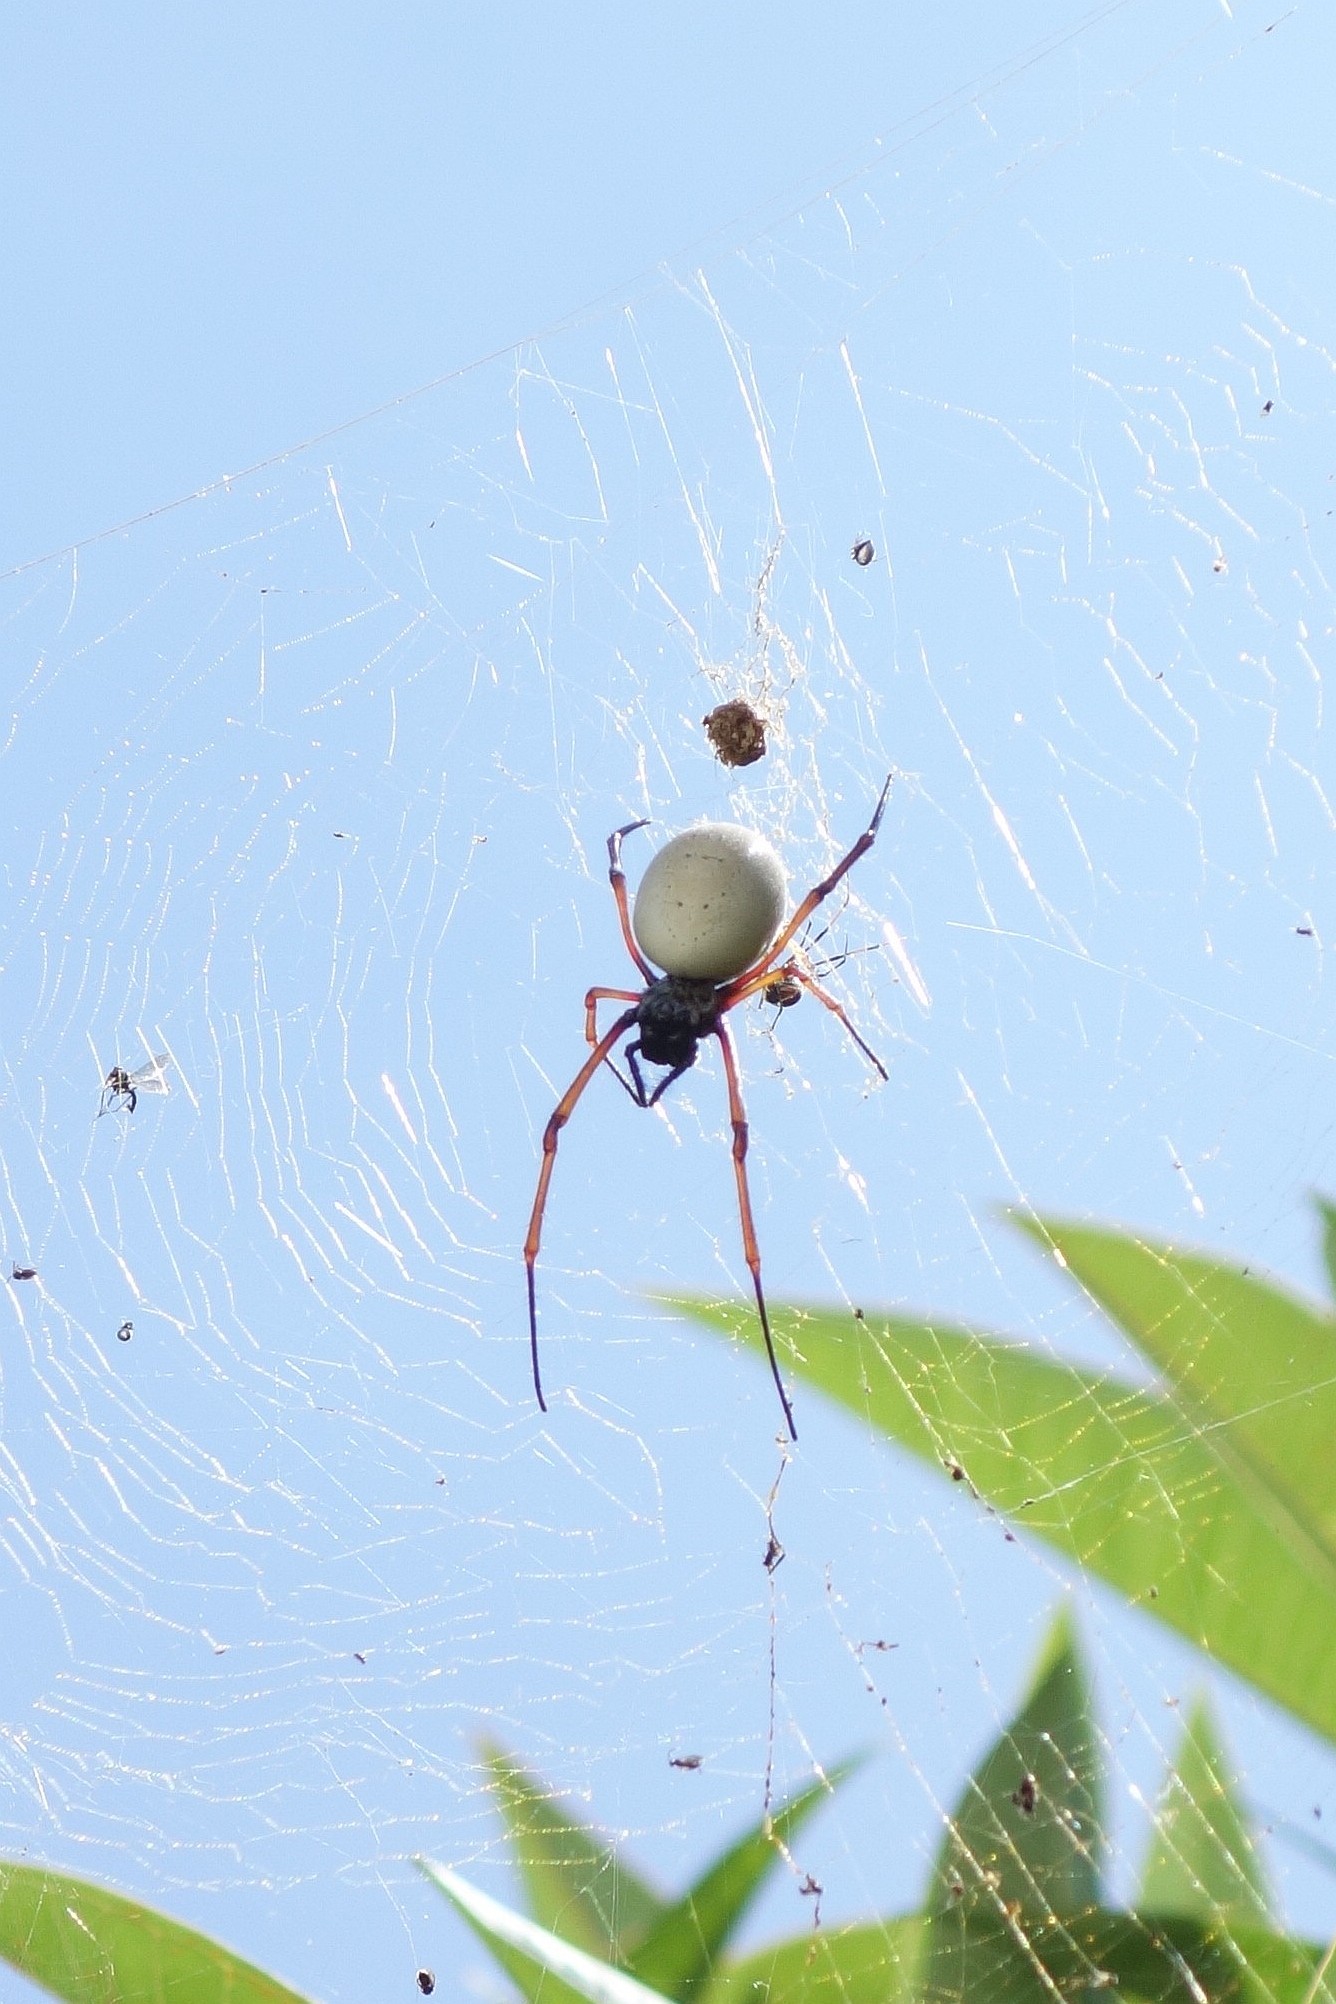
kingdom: Animalia
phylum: Arthropoda
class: Arachnida
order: Araneae
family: Araneidae
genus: Trichonephila
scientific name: Trichonephila plumipes
